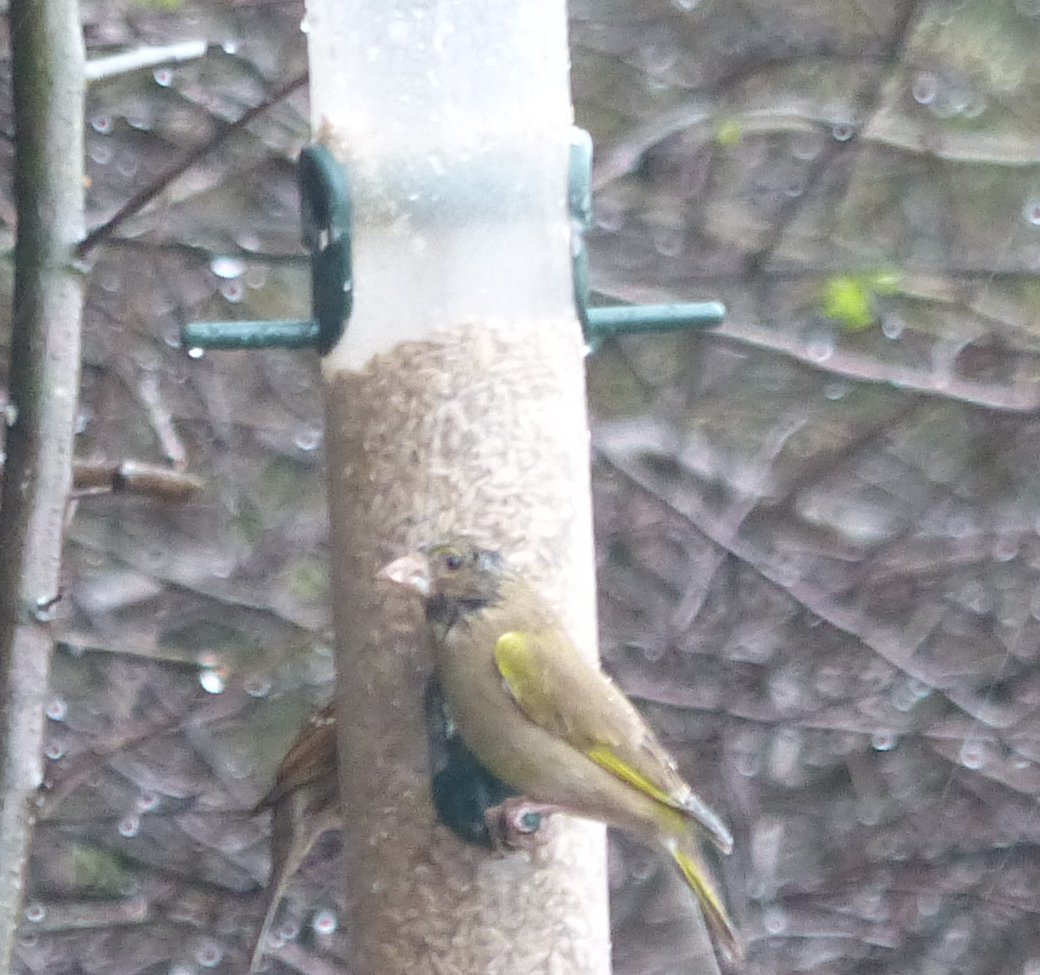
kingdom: Plantae
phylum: Tracheophyta
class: Liliopsida
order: Poales
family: Poaceae
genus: Chloris
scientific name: Chloris chloris
